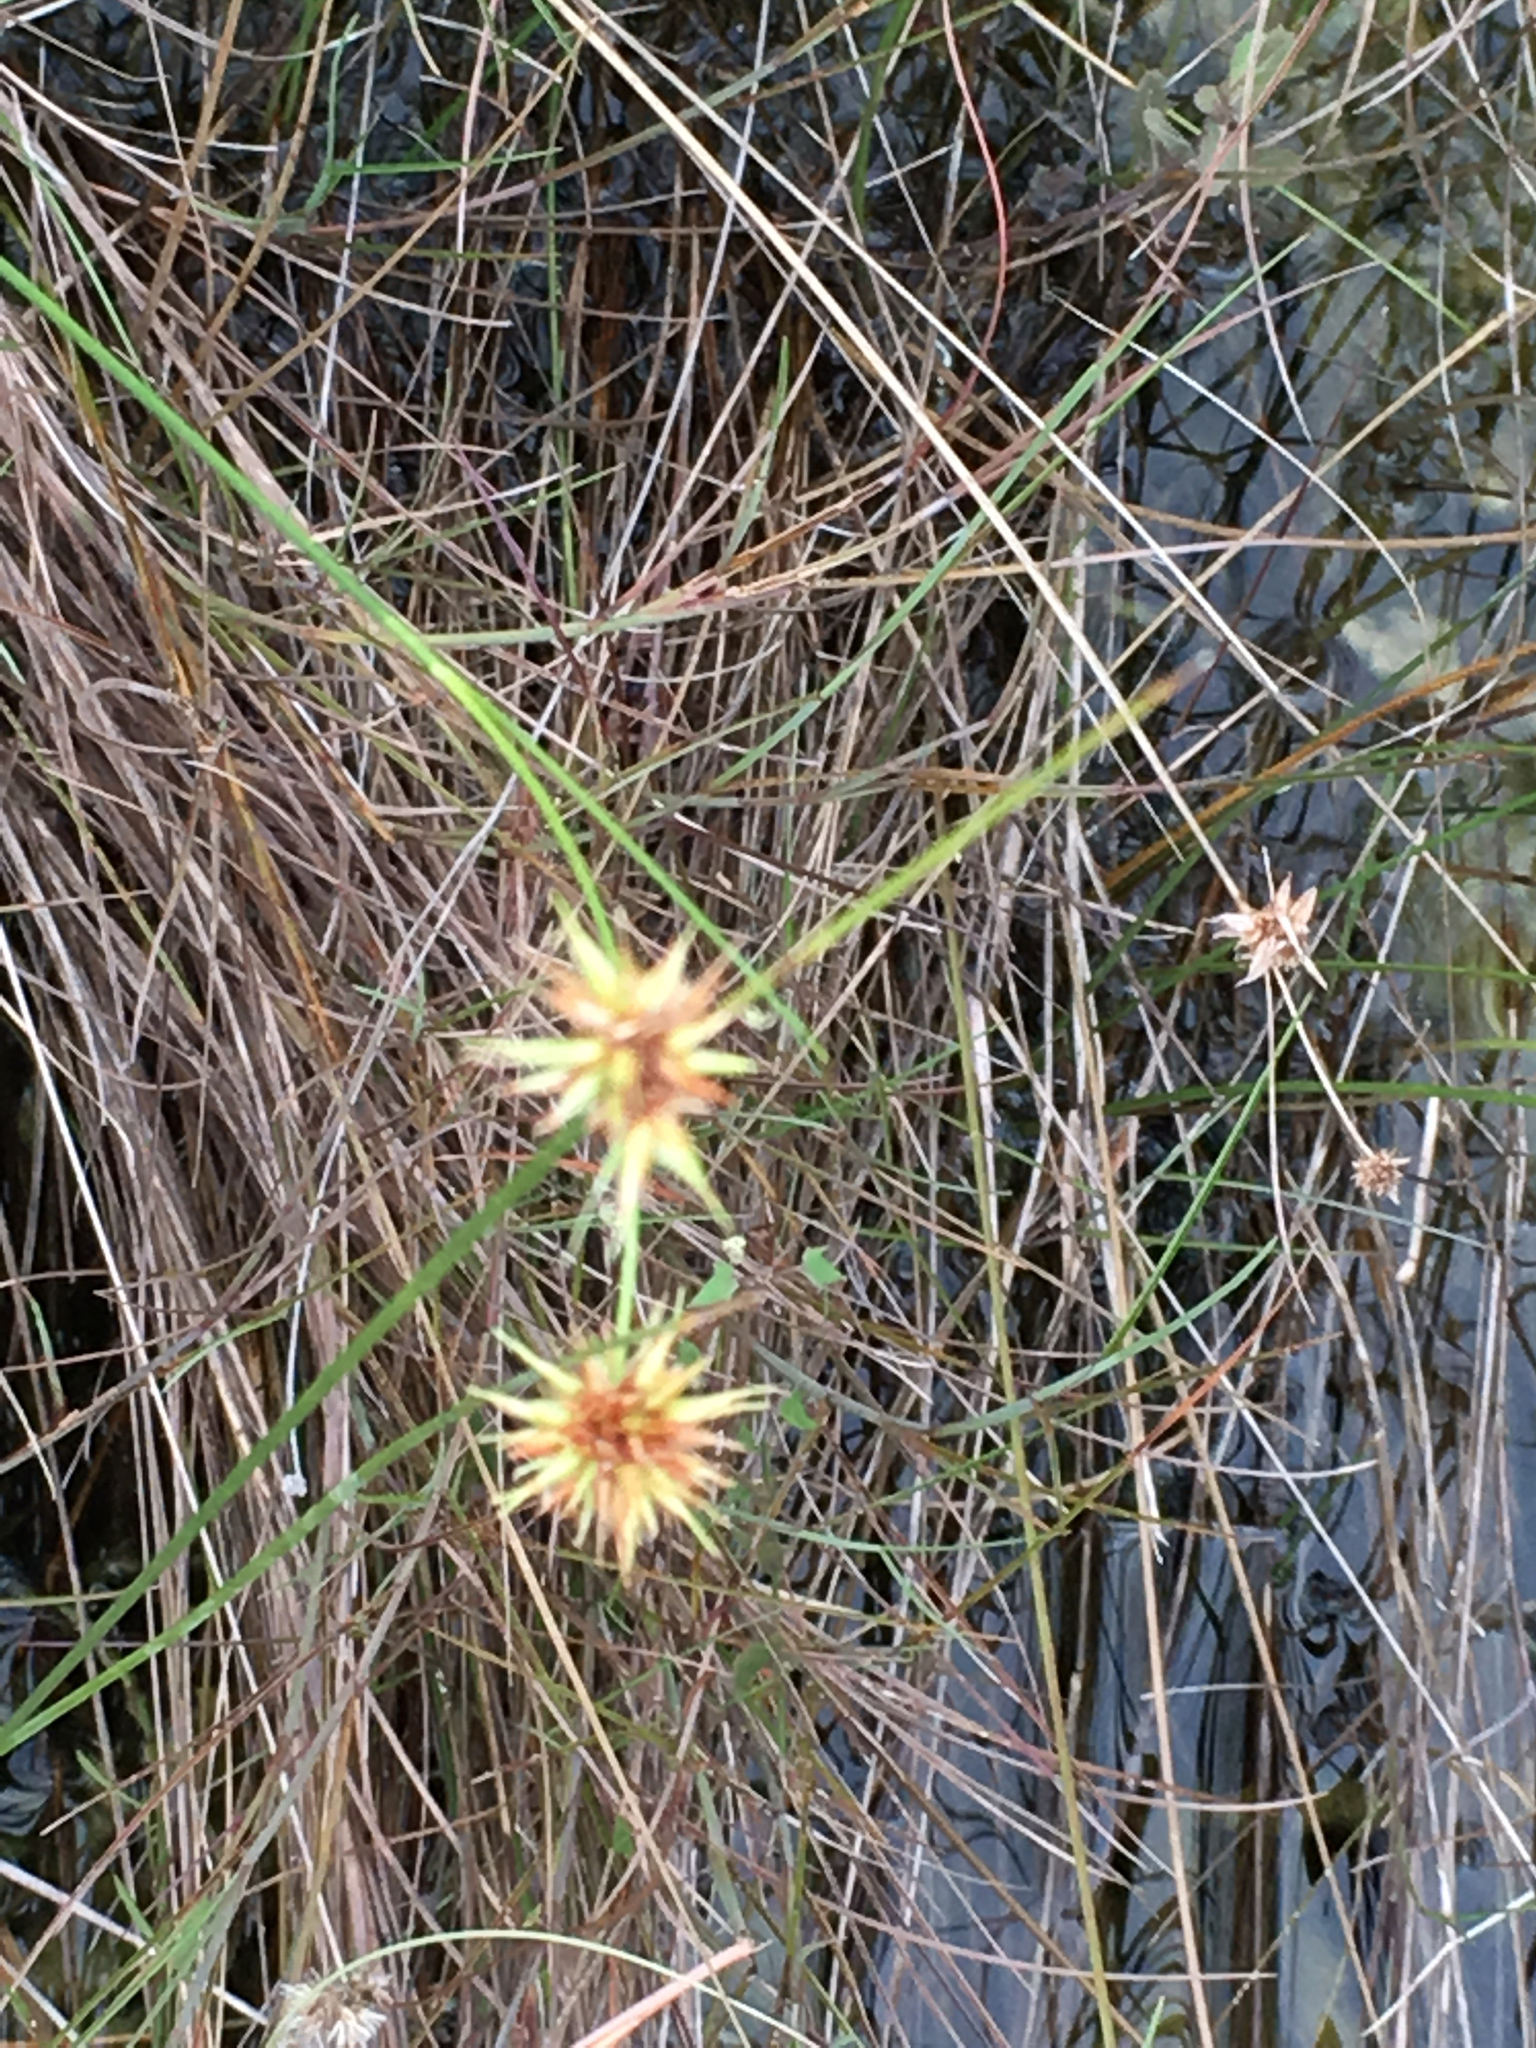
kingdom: Plantae
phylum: Tracheophyta
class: Liliopsida
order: Poales
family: Cyperaceae
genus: Rhynchospora
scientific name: Rhynchospora tracyi
